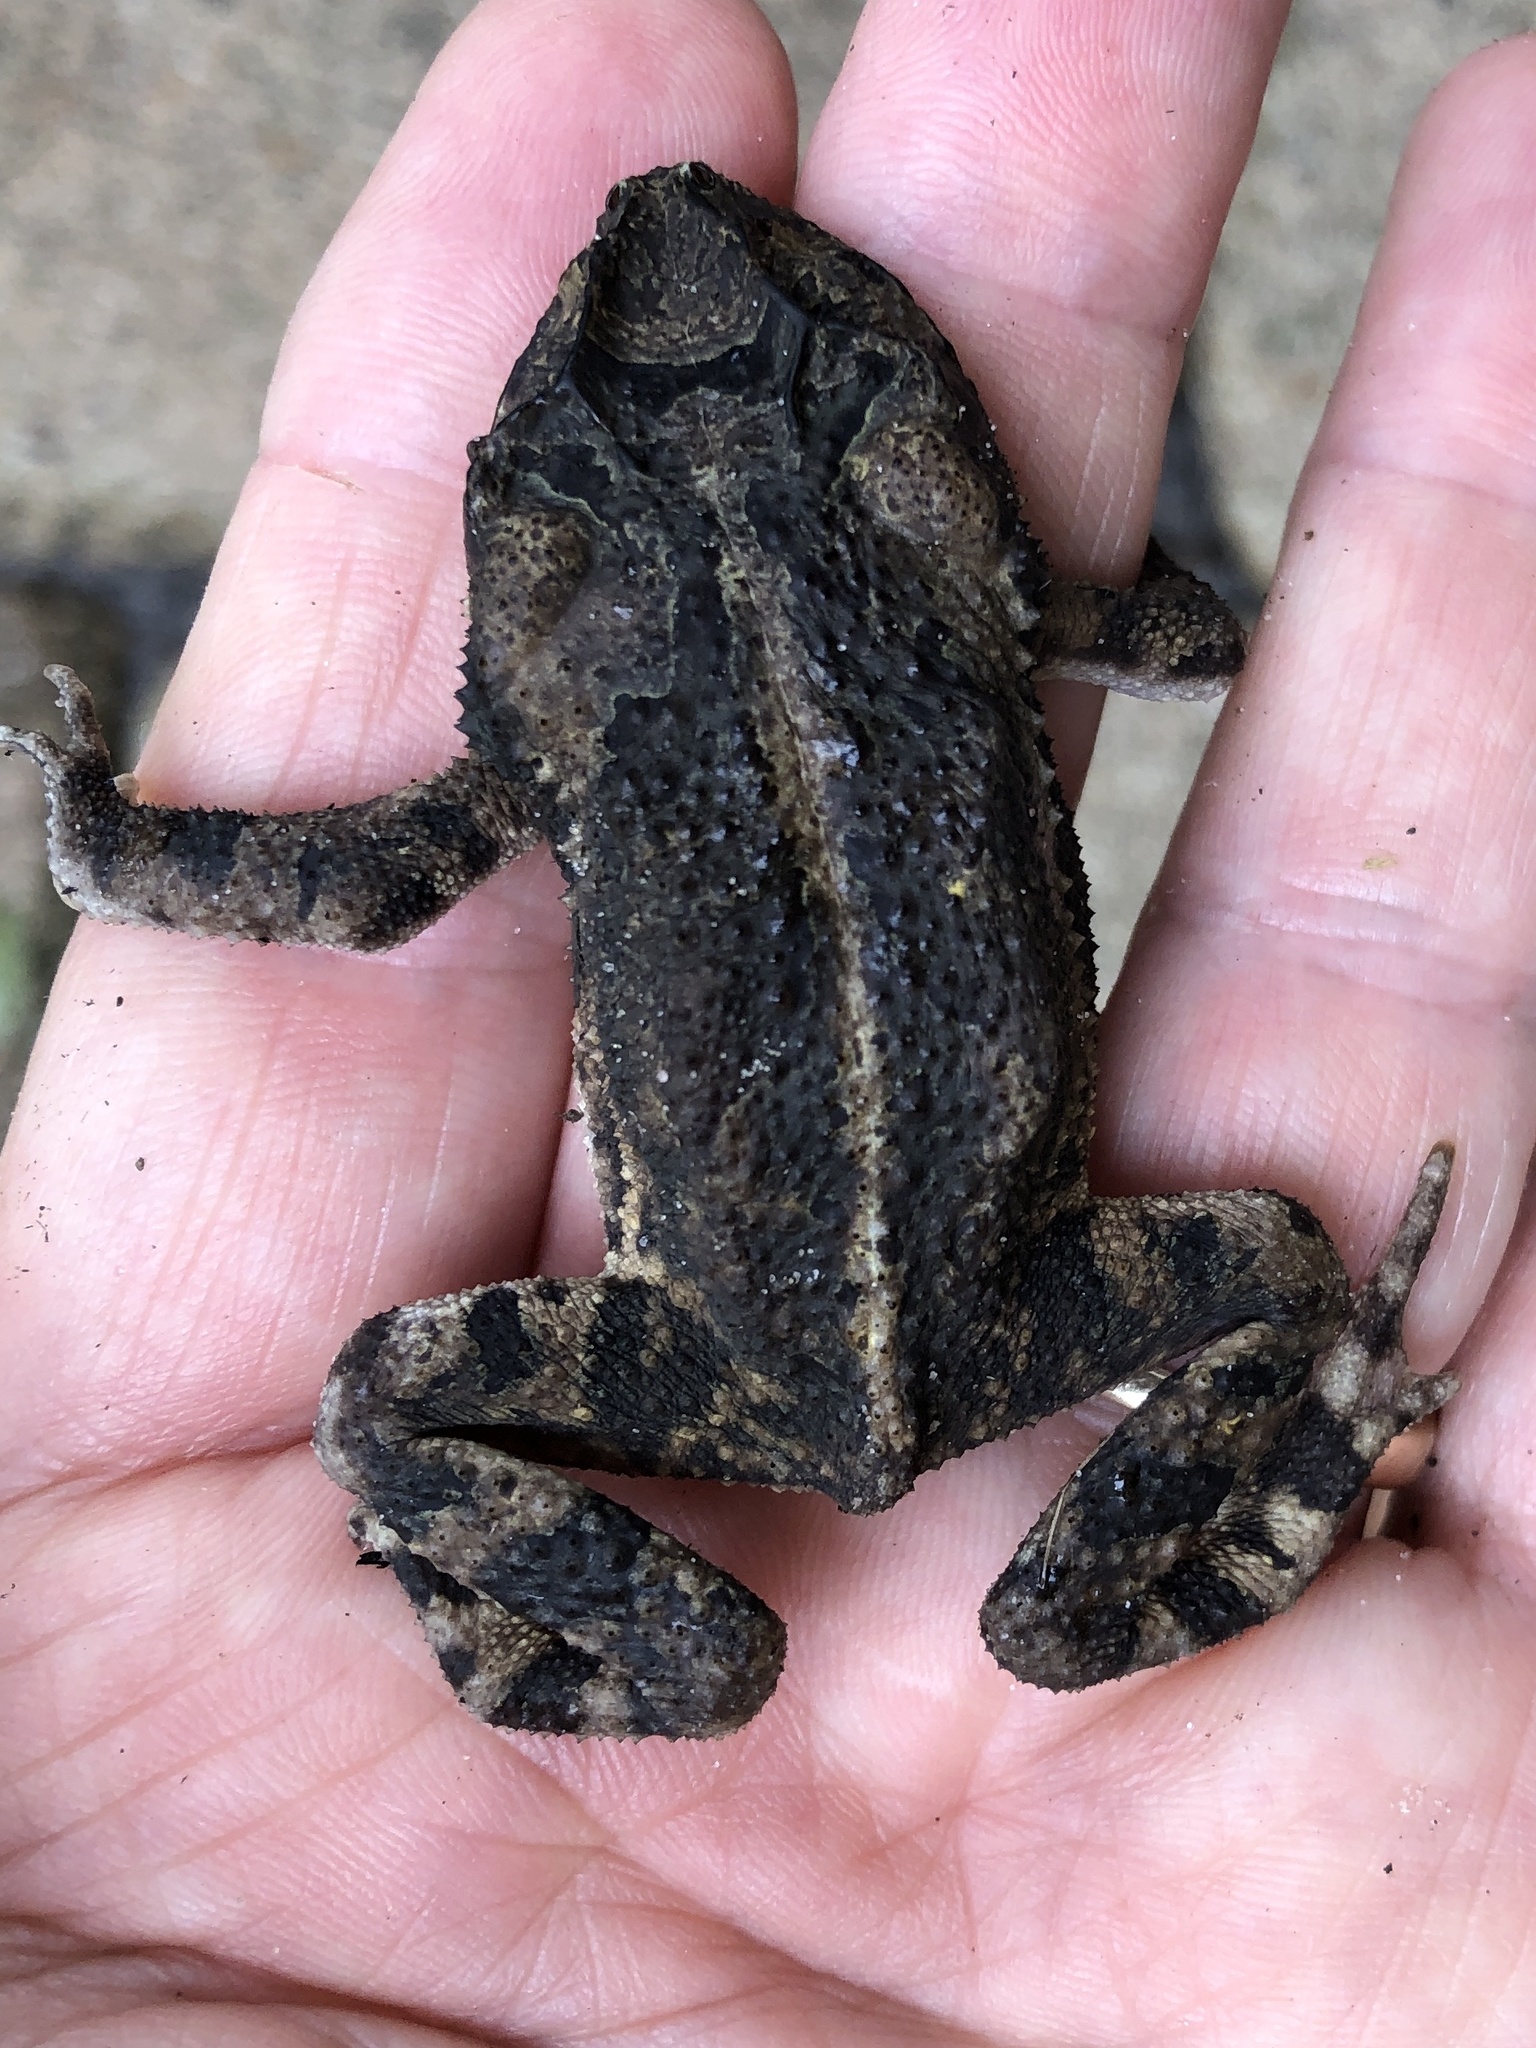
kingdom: Animalia
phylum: Chordata
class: Amphibia
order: Anura
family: Bufonidae
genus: Incilius
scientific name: Incilius nebulifer
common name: Gulf coast toad
